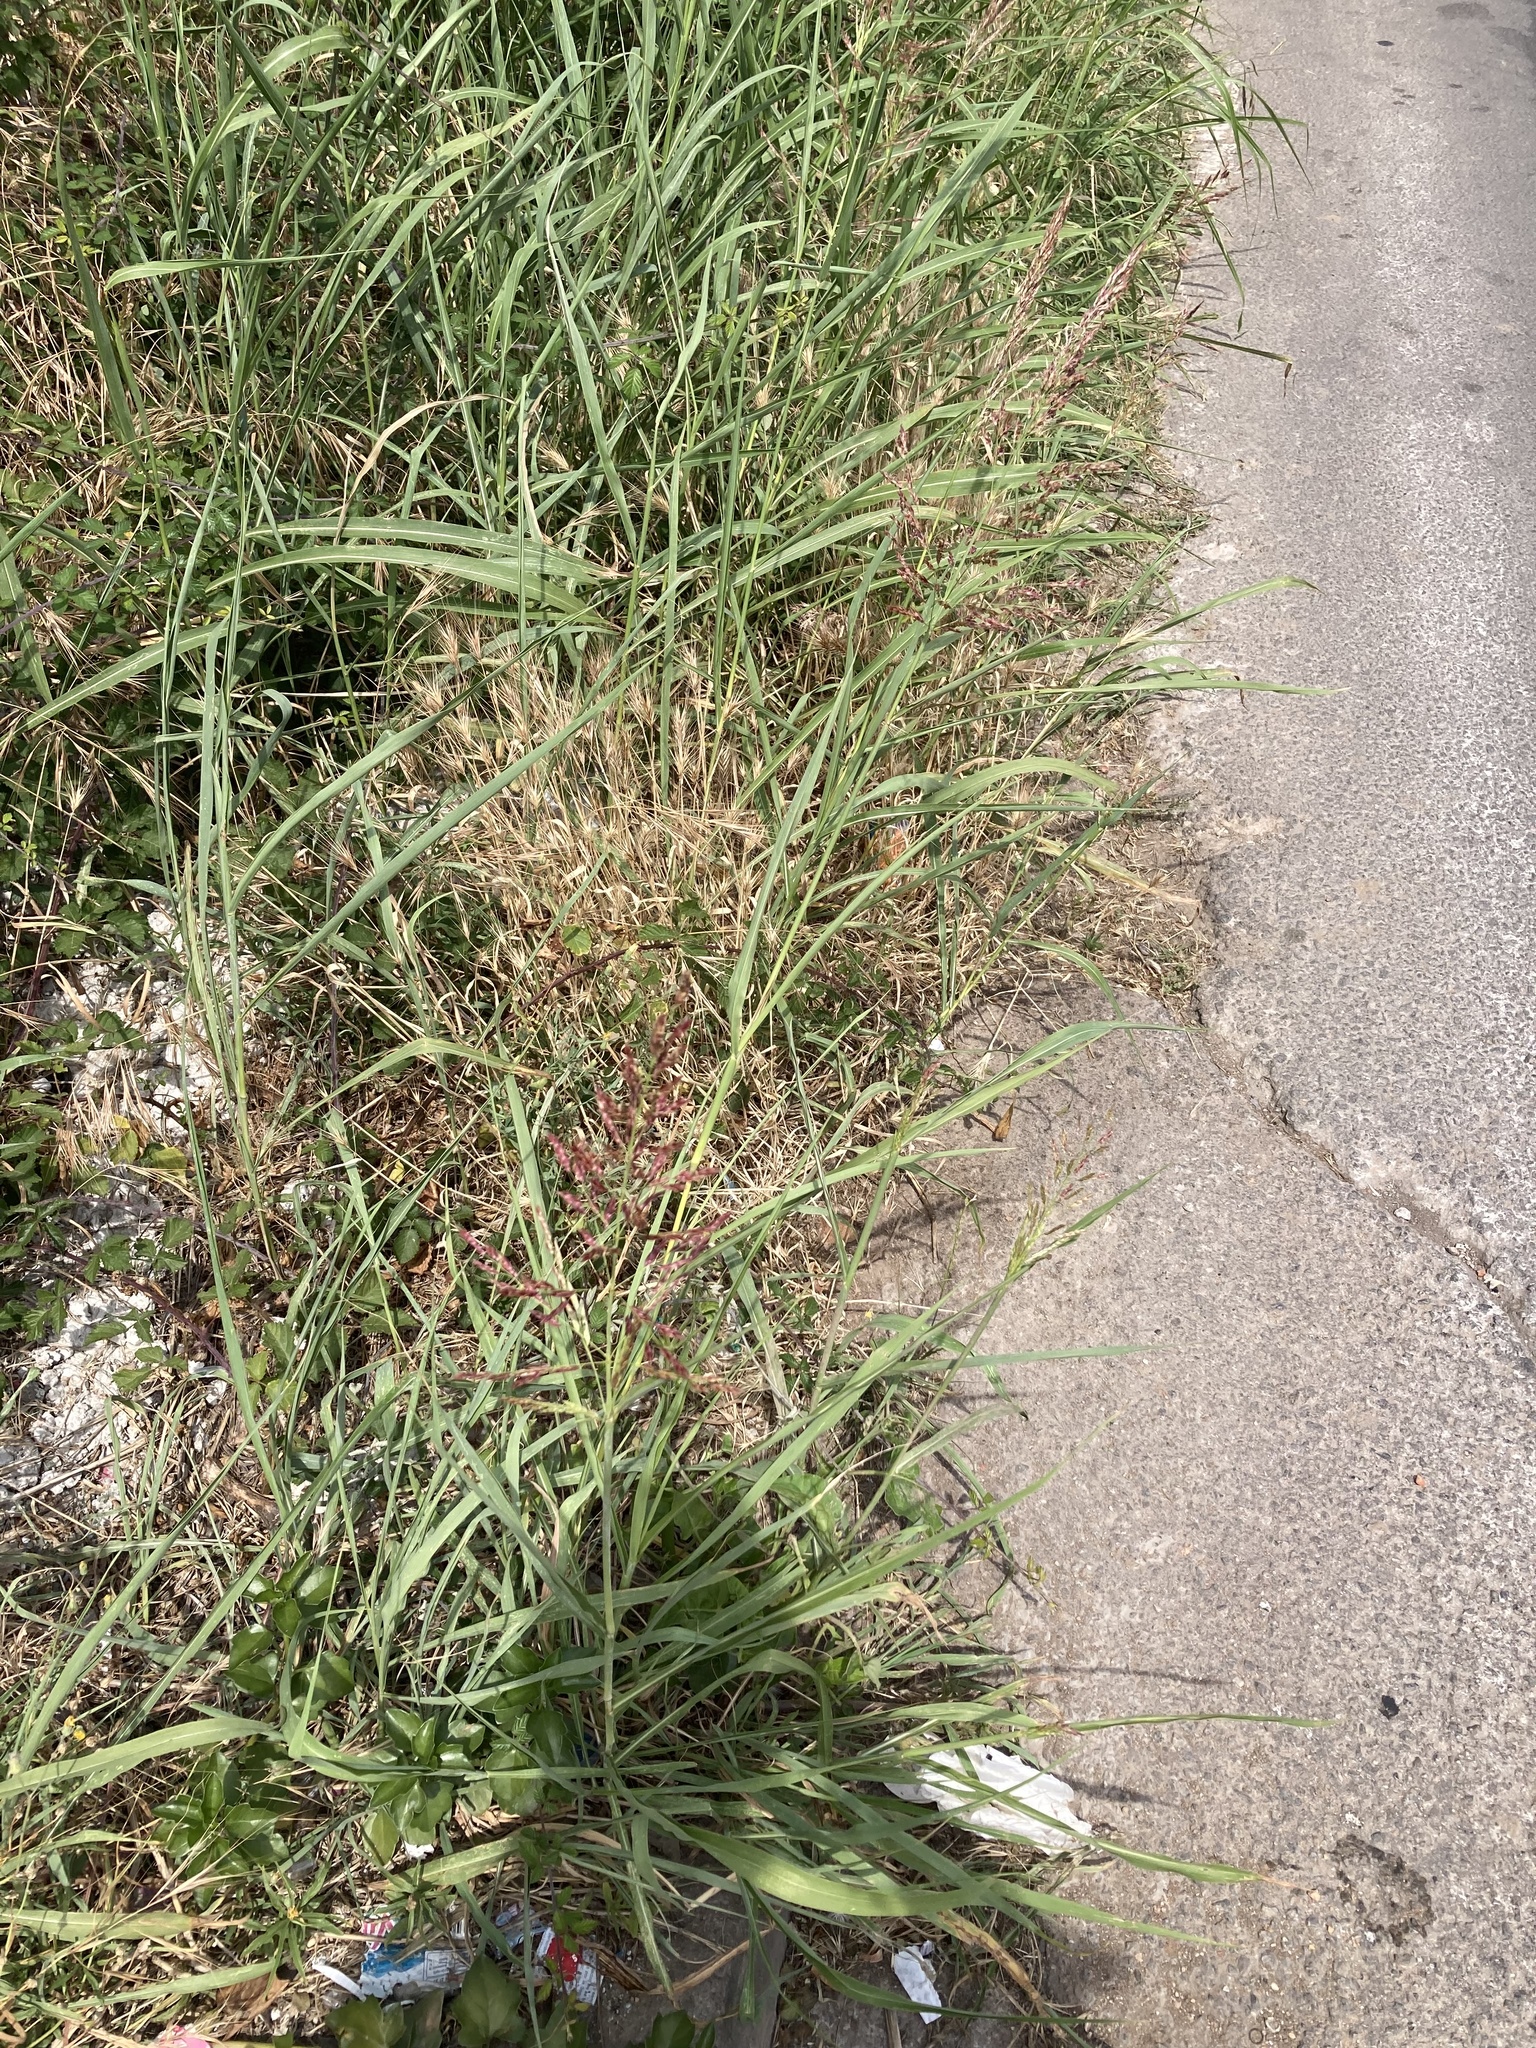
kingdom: Plantae
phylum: Tracheophyta
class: Liliopsida
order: Poales
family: Poaceae
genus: Sorghum
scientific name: Sorghum halepense
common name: Johnson-grass
